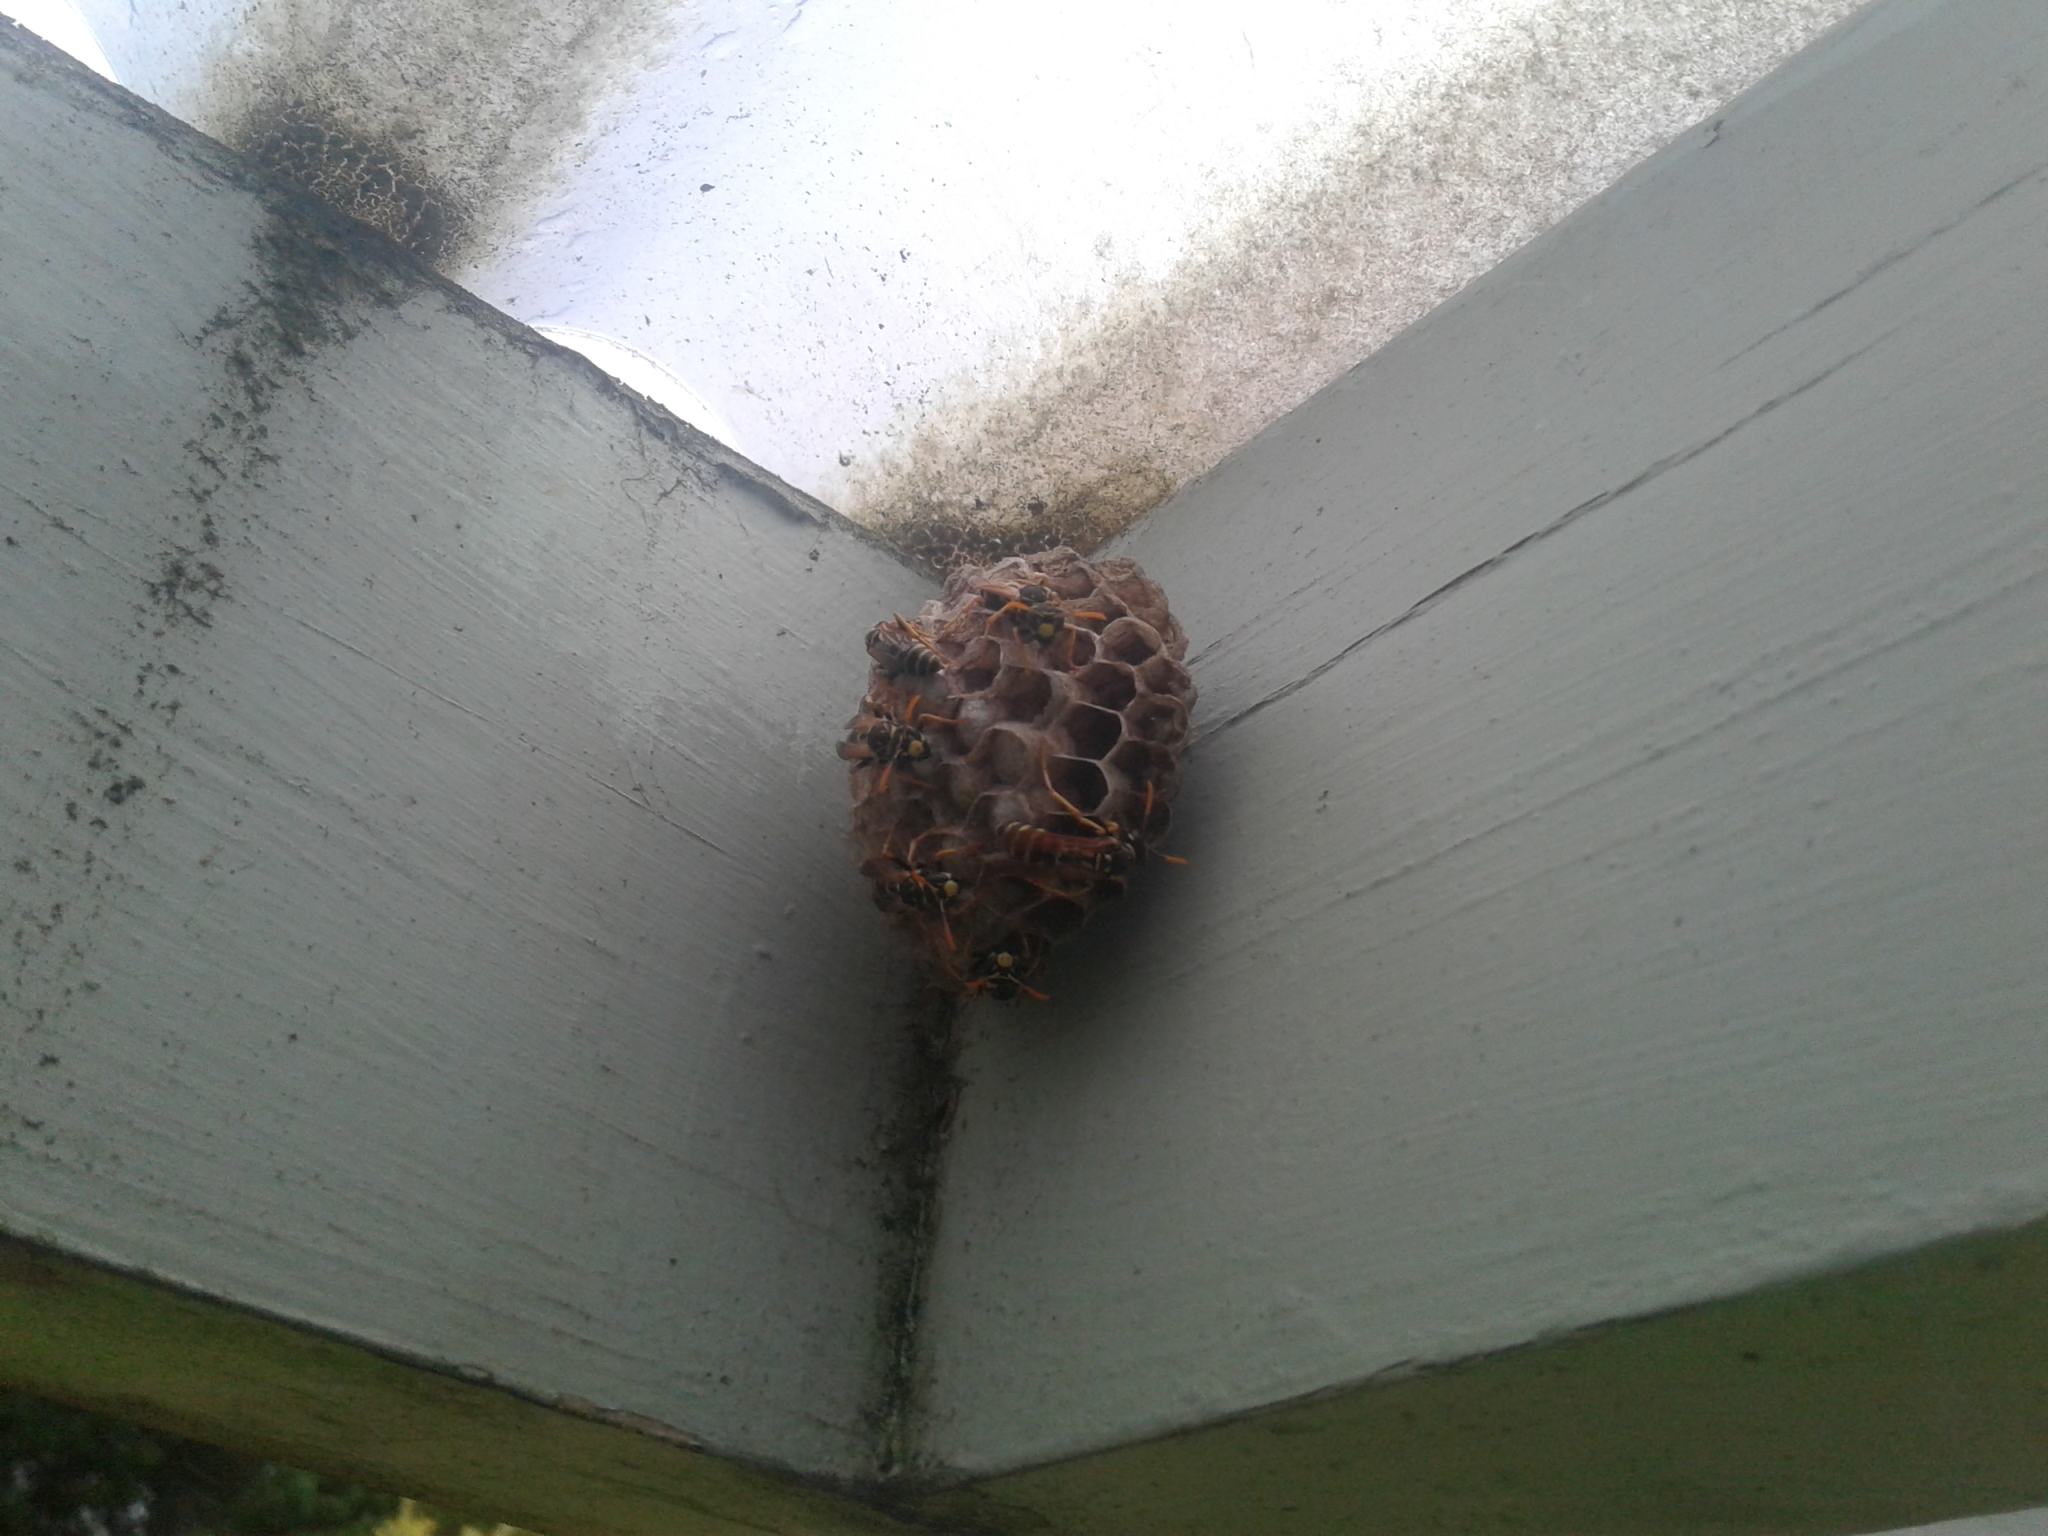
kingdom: Animalia
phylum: Arthropoda
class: Insecta
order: Hymenoptera
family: Eumenidae
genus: Polistes
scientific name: Polistes dominula
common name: Paper wasp
